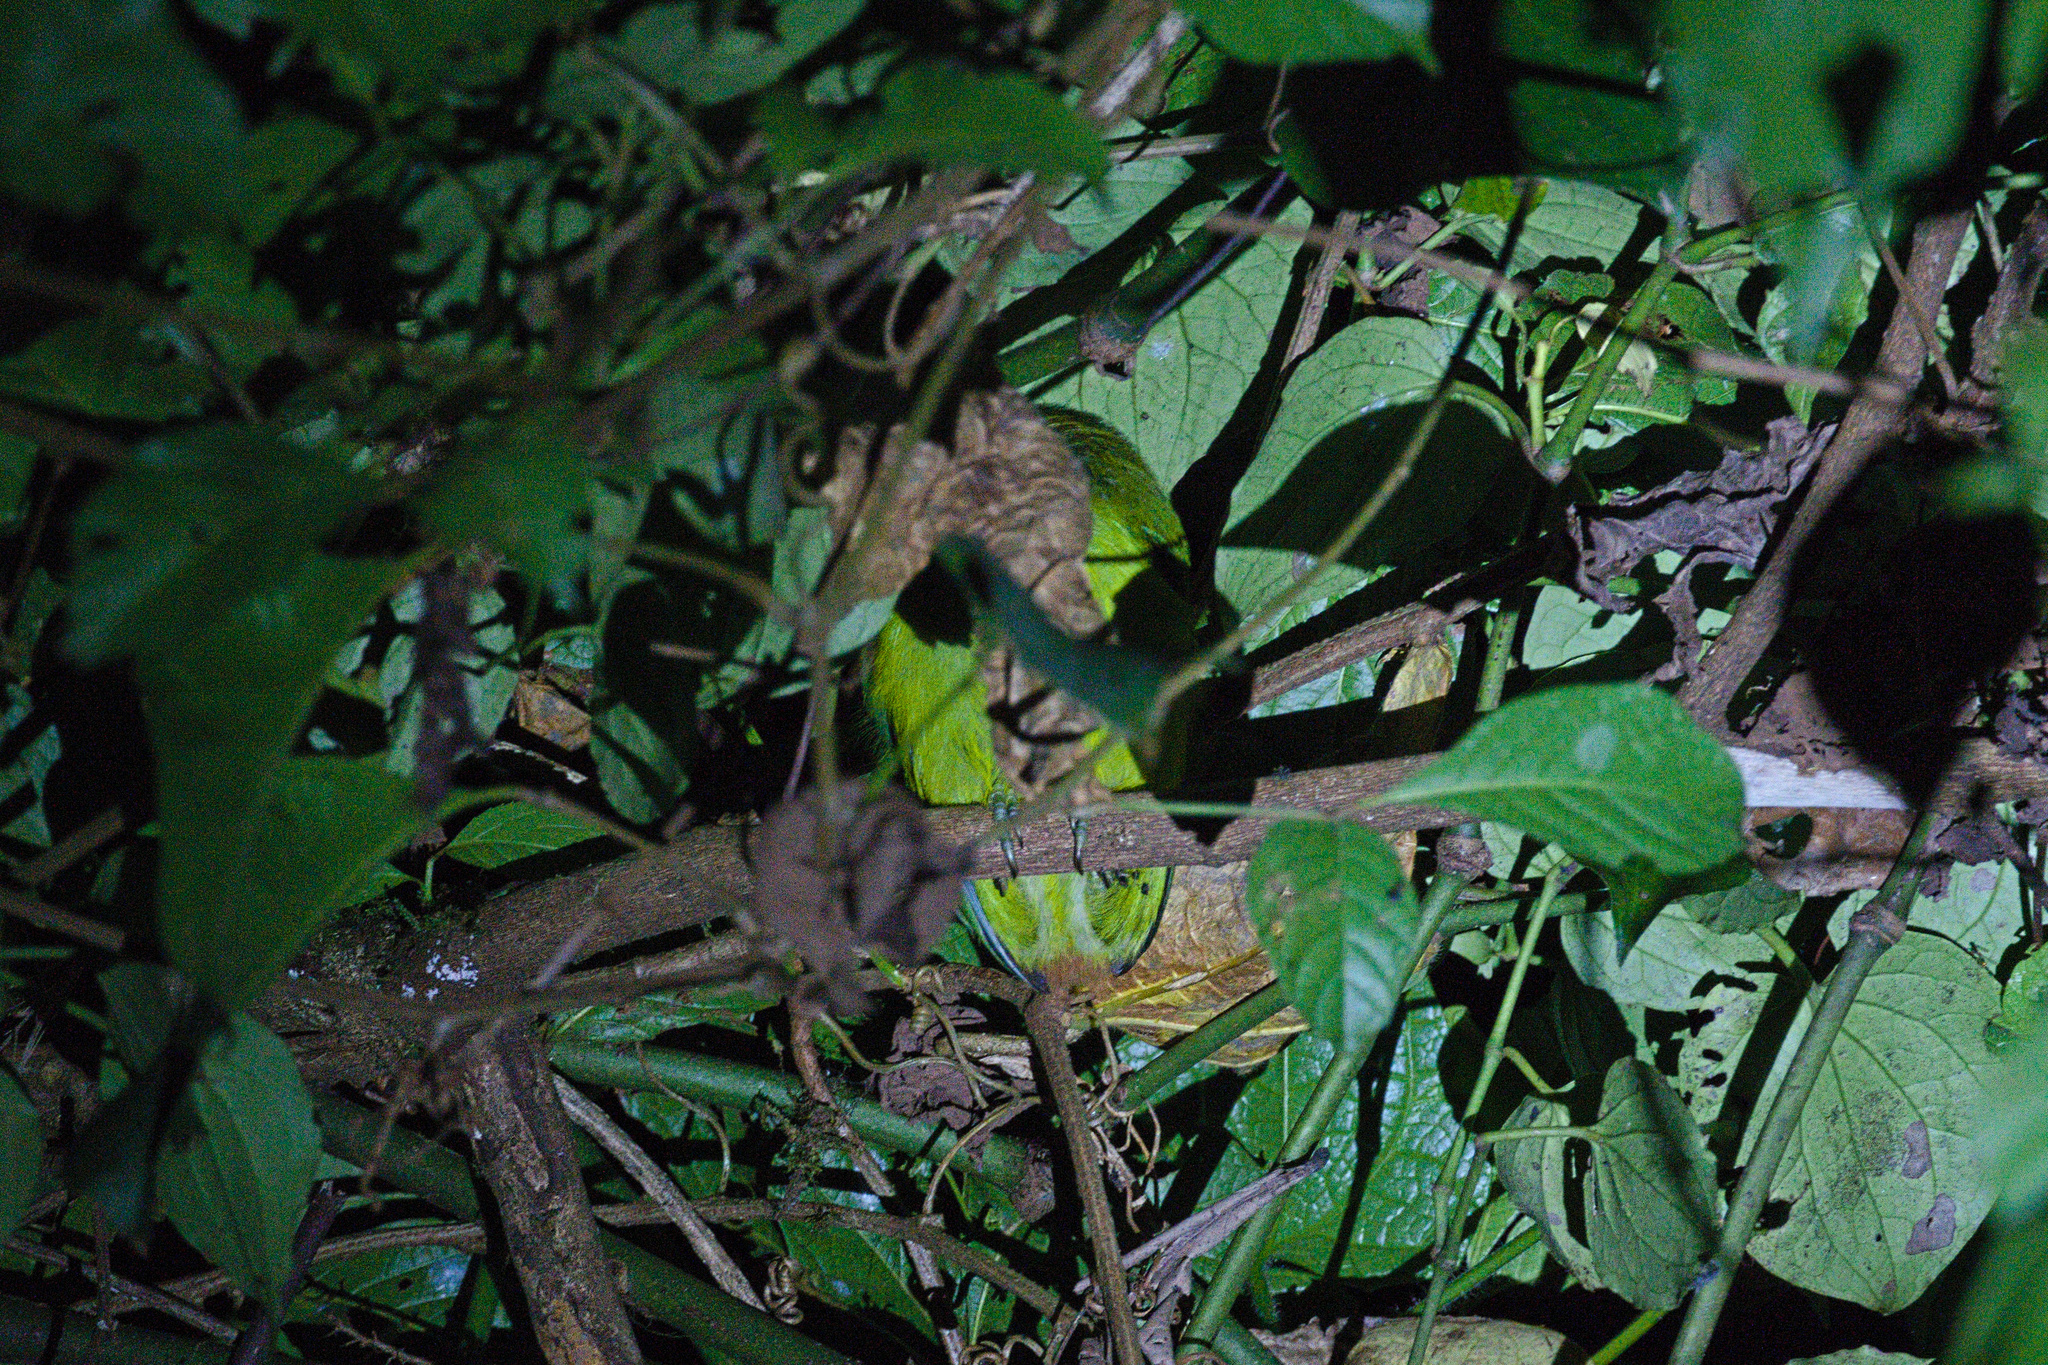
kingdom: Animalia
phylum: Chordata
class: Aves
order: Piciformes
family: Ramphastidae
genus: Aulacorhynchus
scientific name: Aulacorhynchus prasinus
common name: Emerald toucanet
